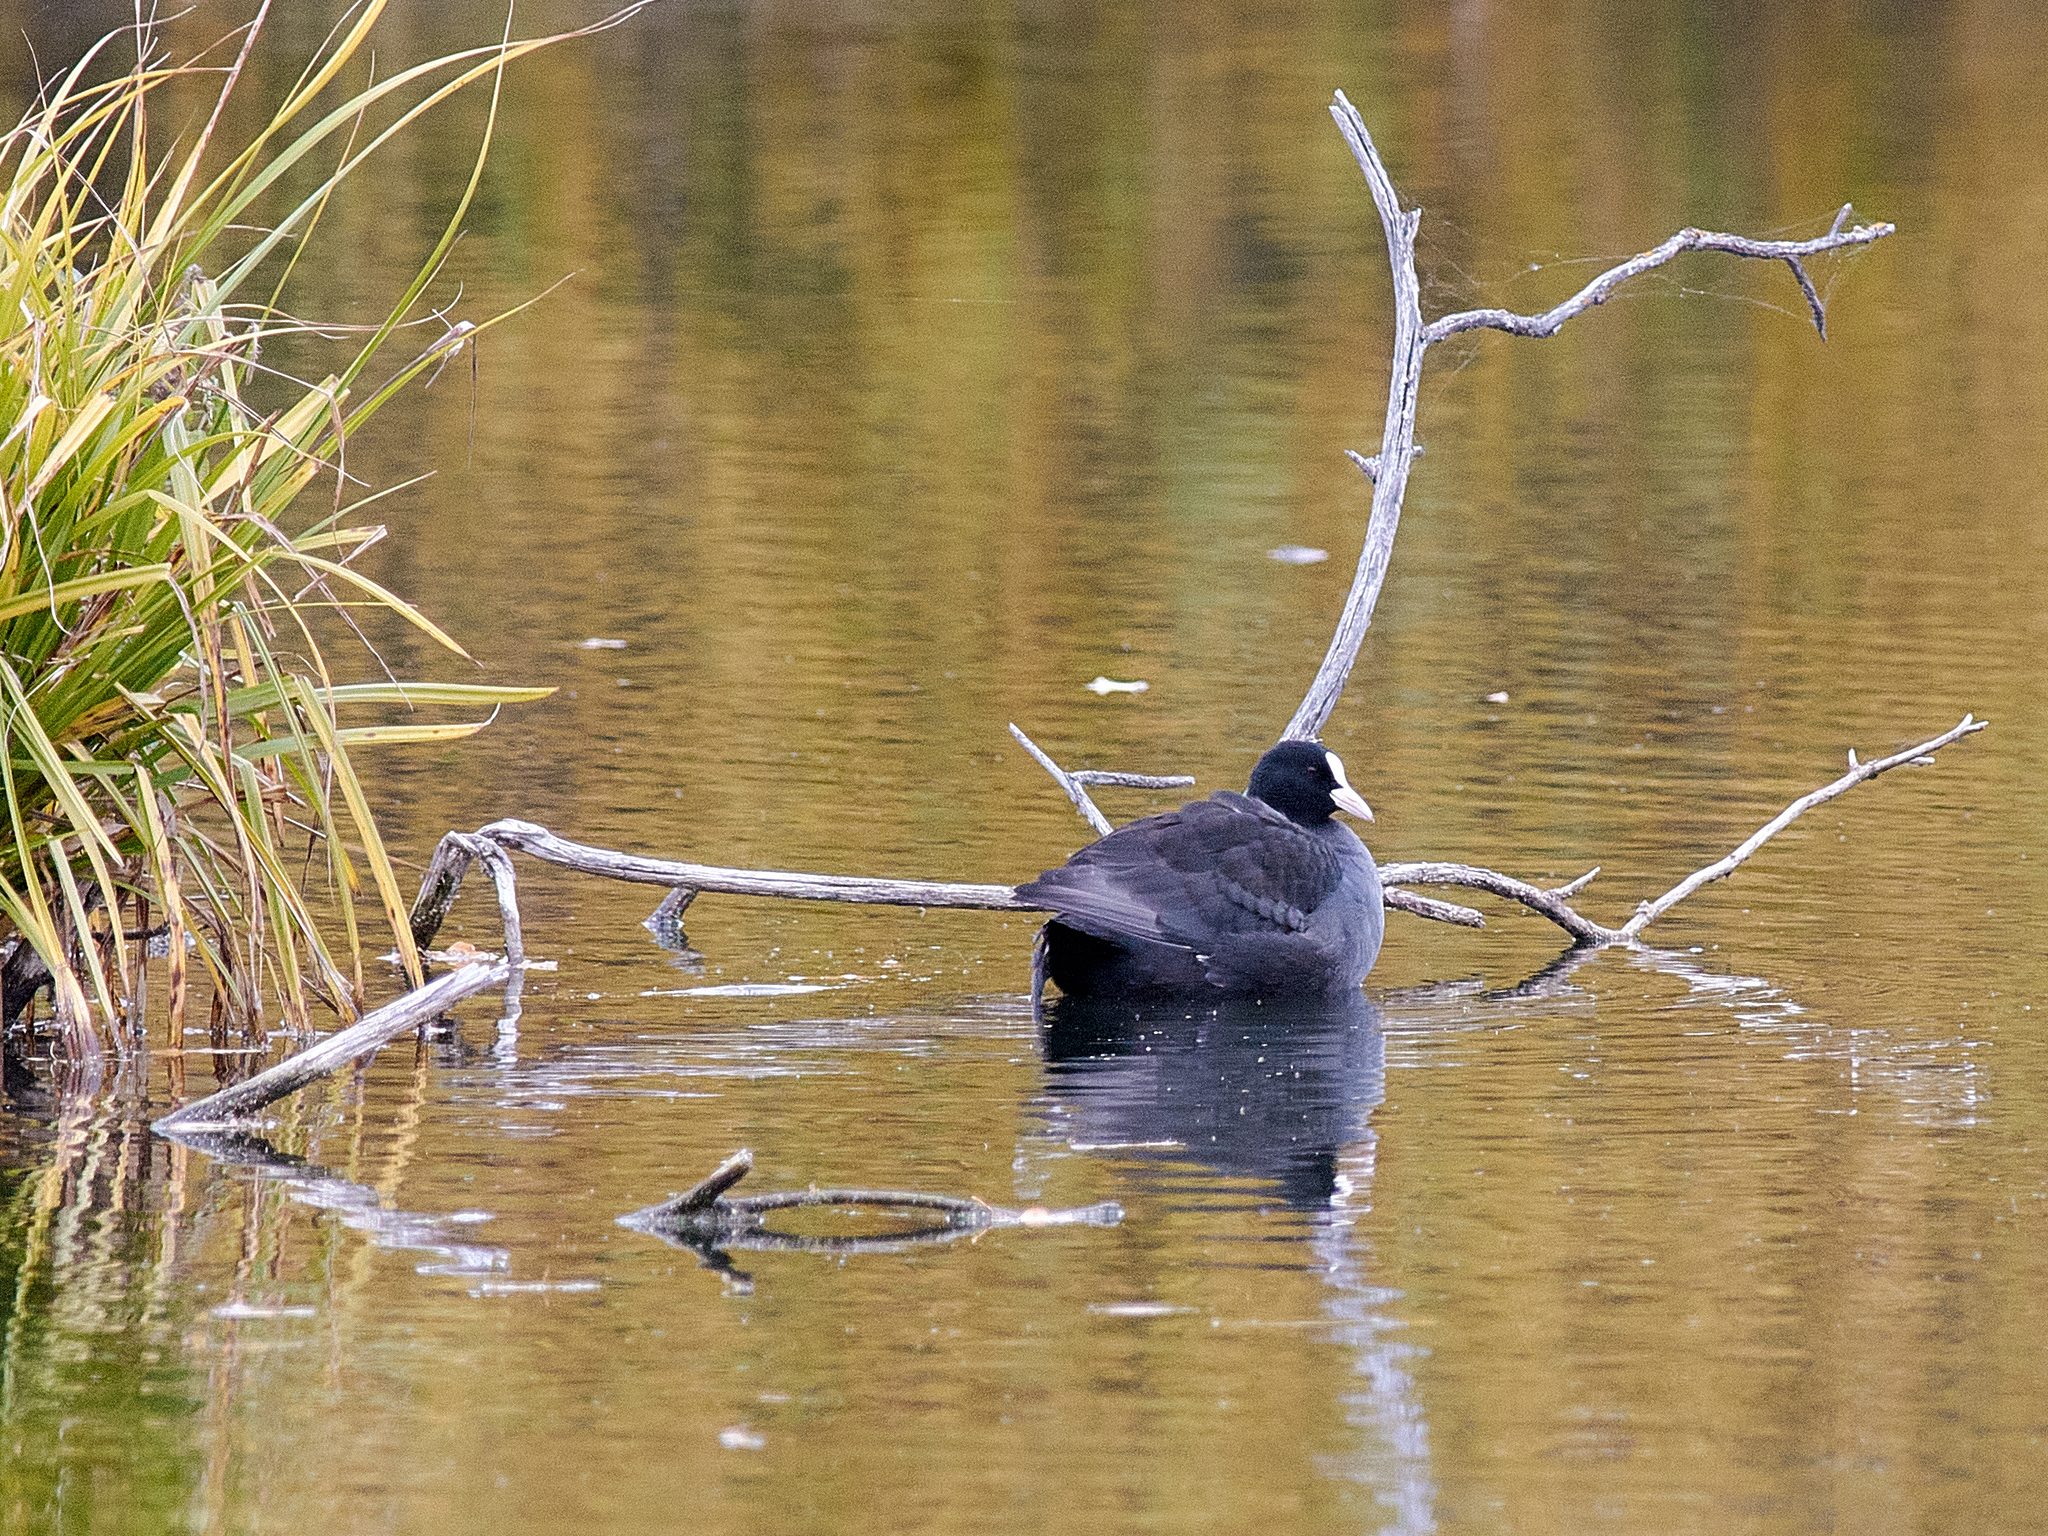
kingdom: Animalia
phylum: Chordata
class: Aves
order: Gruiformes
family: Rallidae
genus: Fulica
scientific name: Fulica atra
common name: Eurasian coot
